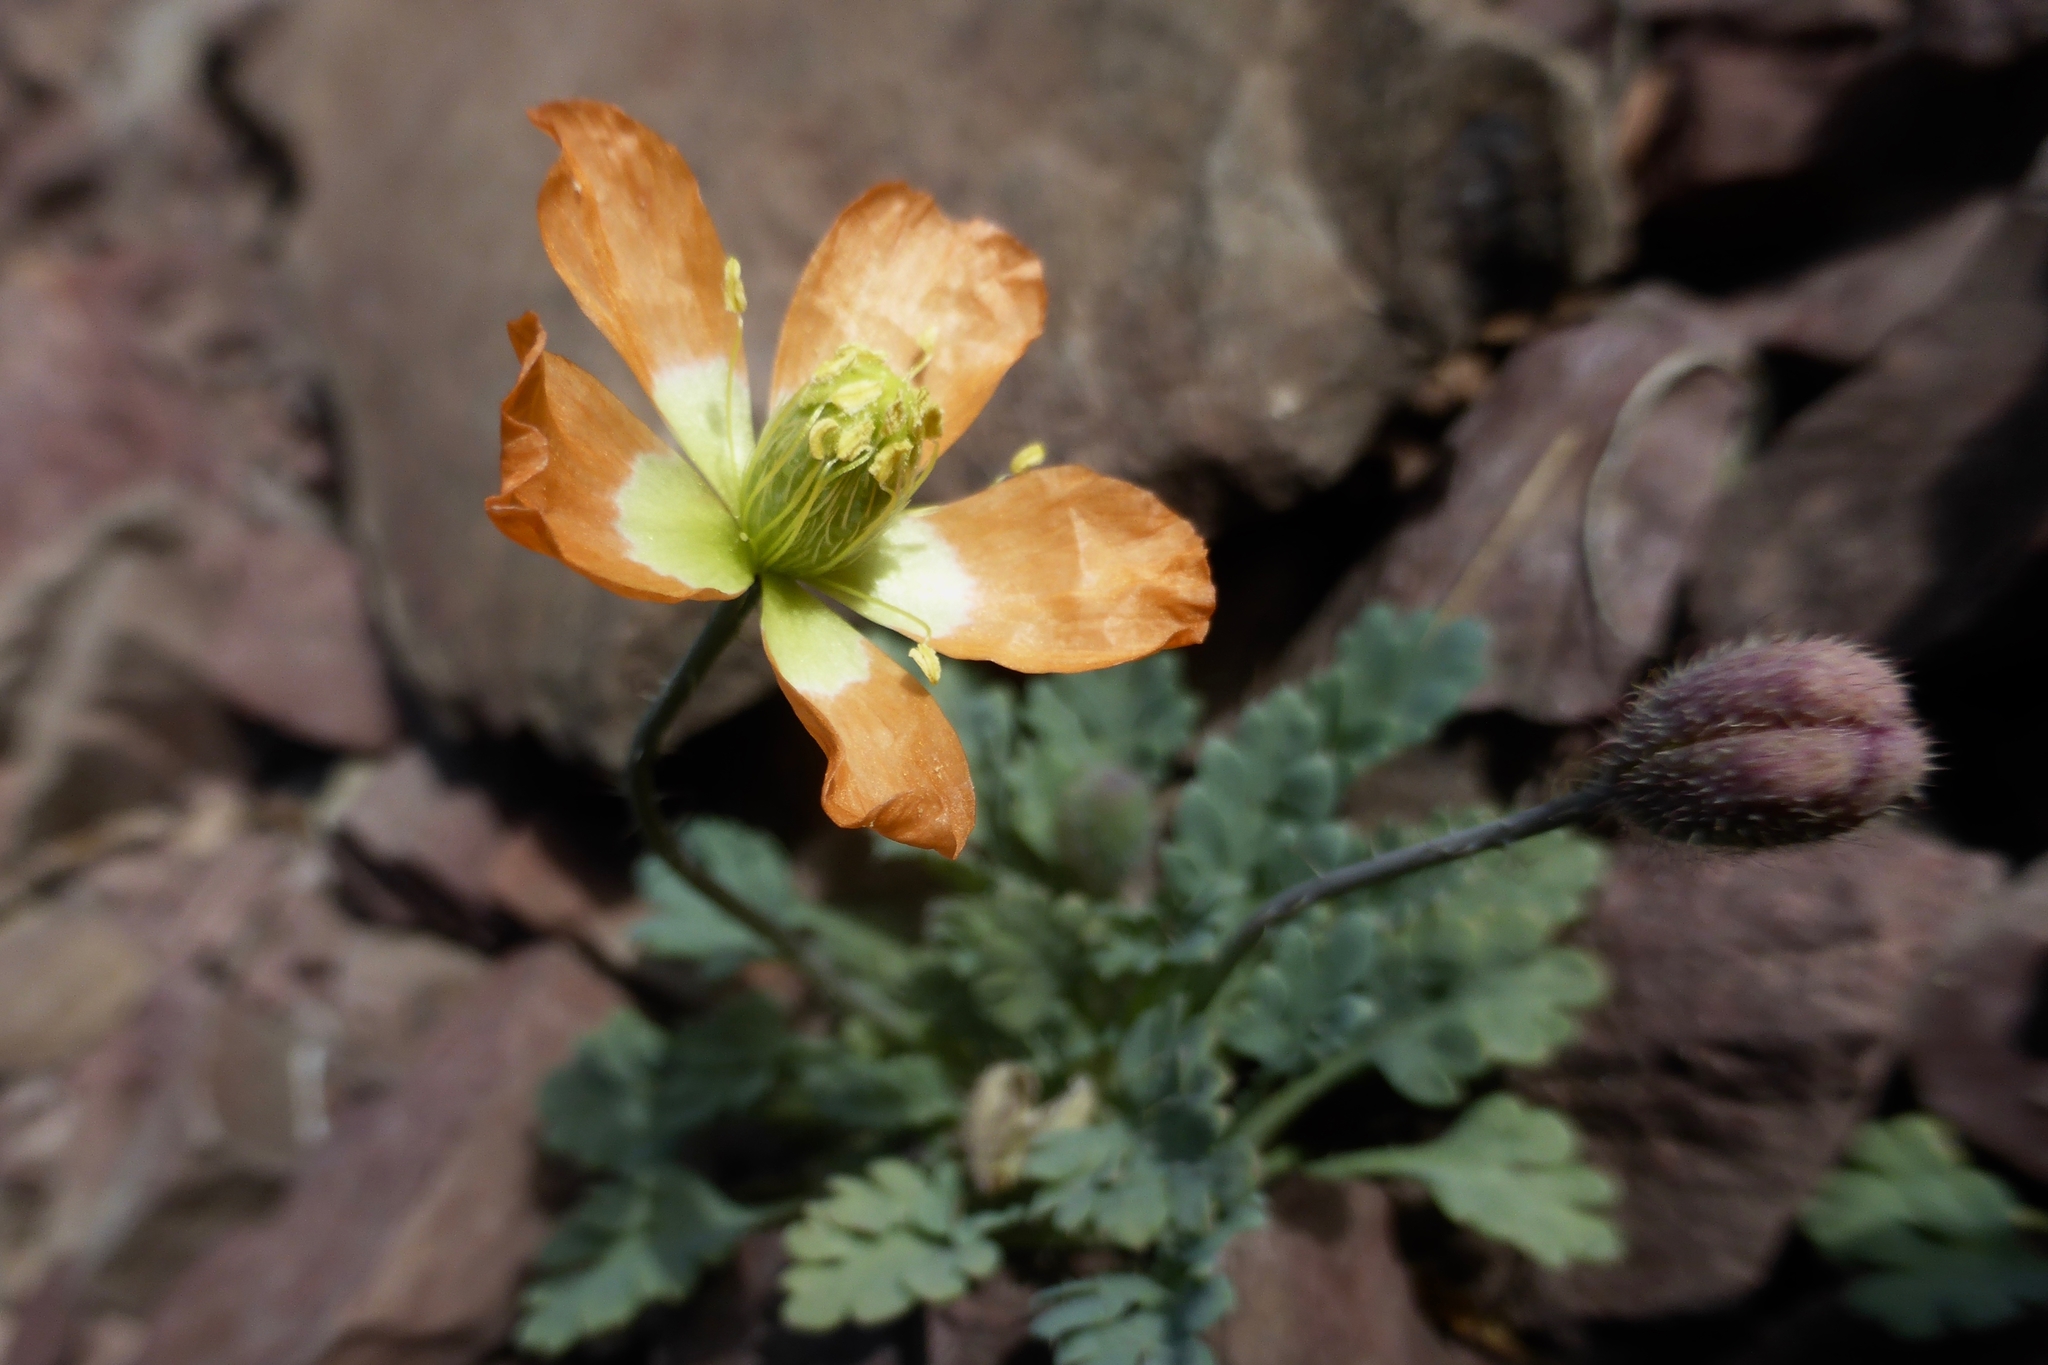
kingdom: Plantae
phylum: Tracheophyta
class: Magnoliopsida
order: Ranunculales
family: Papaveraceae
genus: Papaver
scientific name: Papaver pygmaeum
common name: Alpine glacier poppy
